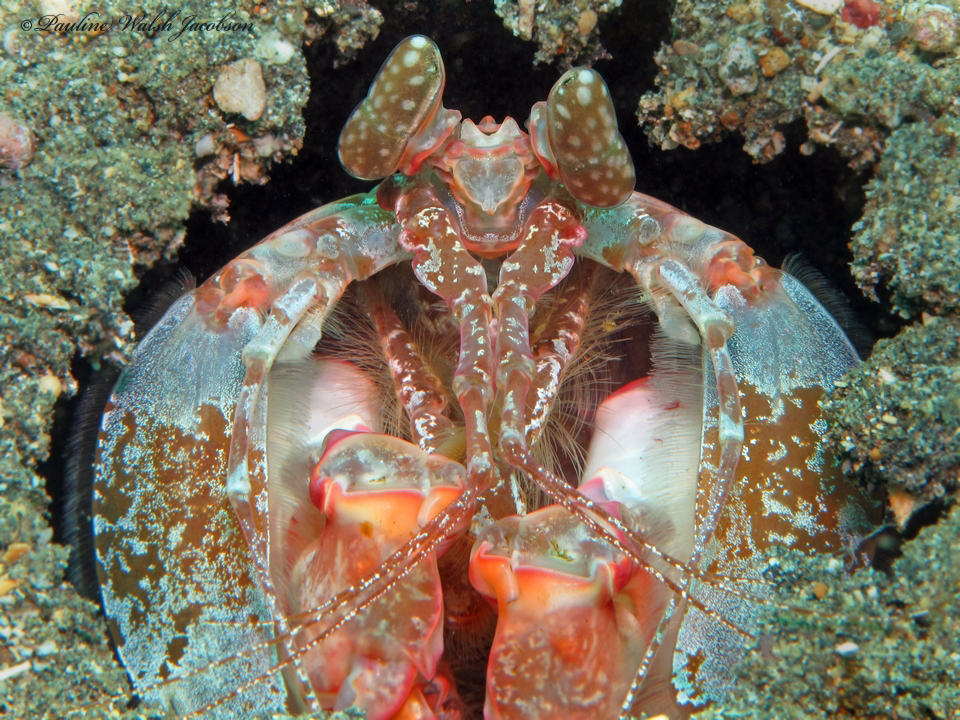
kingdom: Animalia
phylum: Arthropoda
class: Malacostraca
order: Stomatopoda
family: Lysiosquillidae
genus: Lysiosquilla
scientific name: Lysiosquilla lisa
